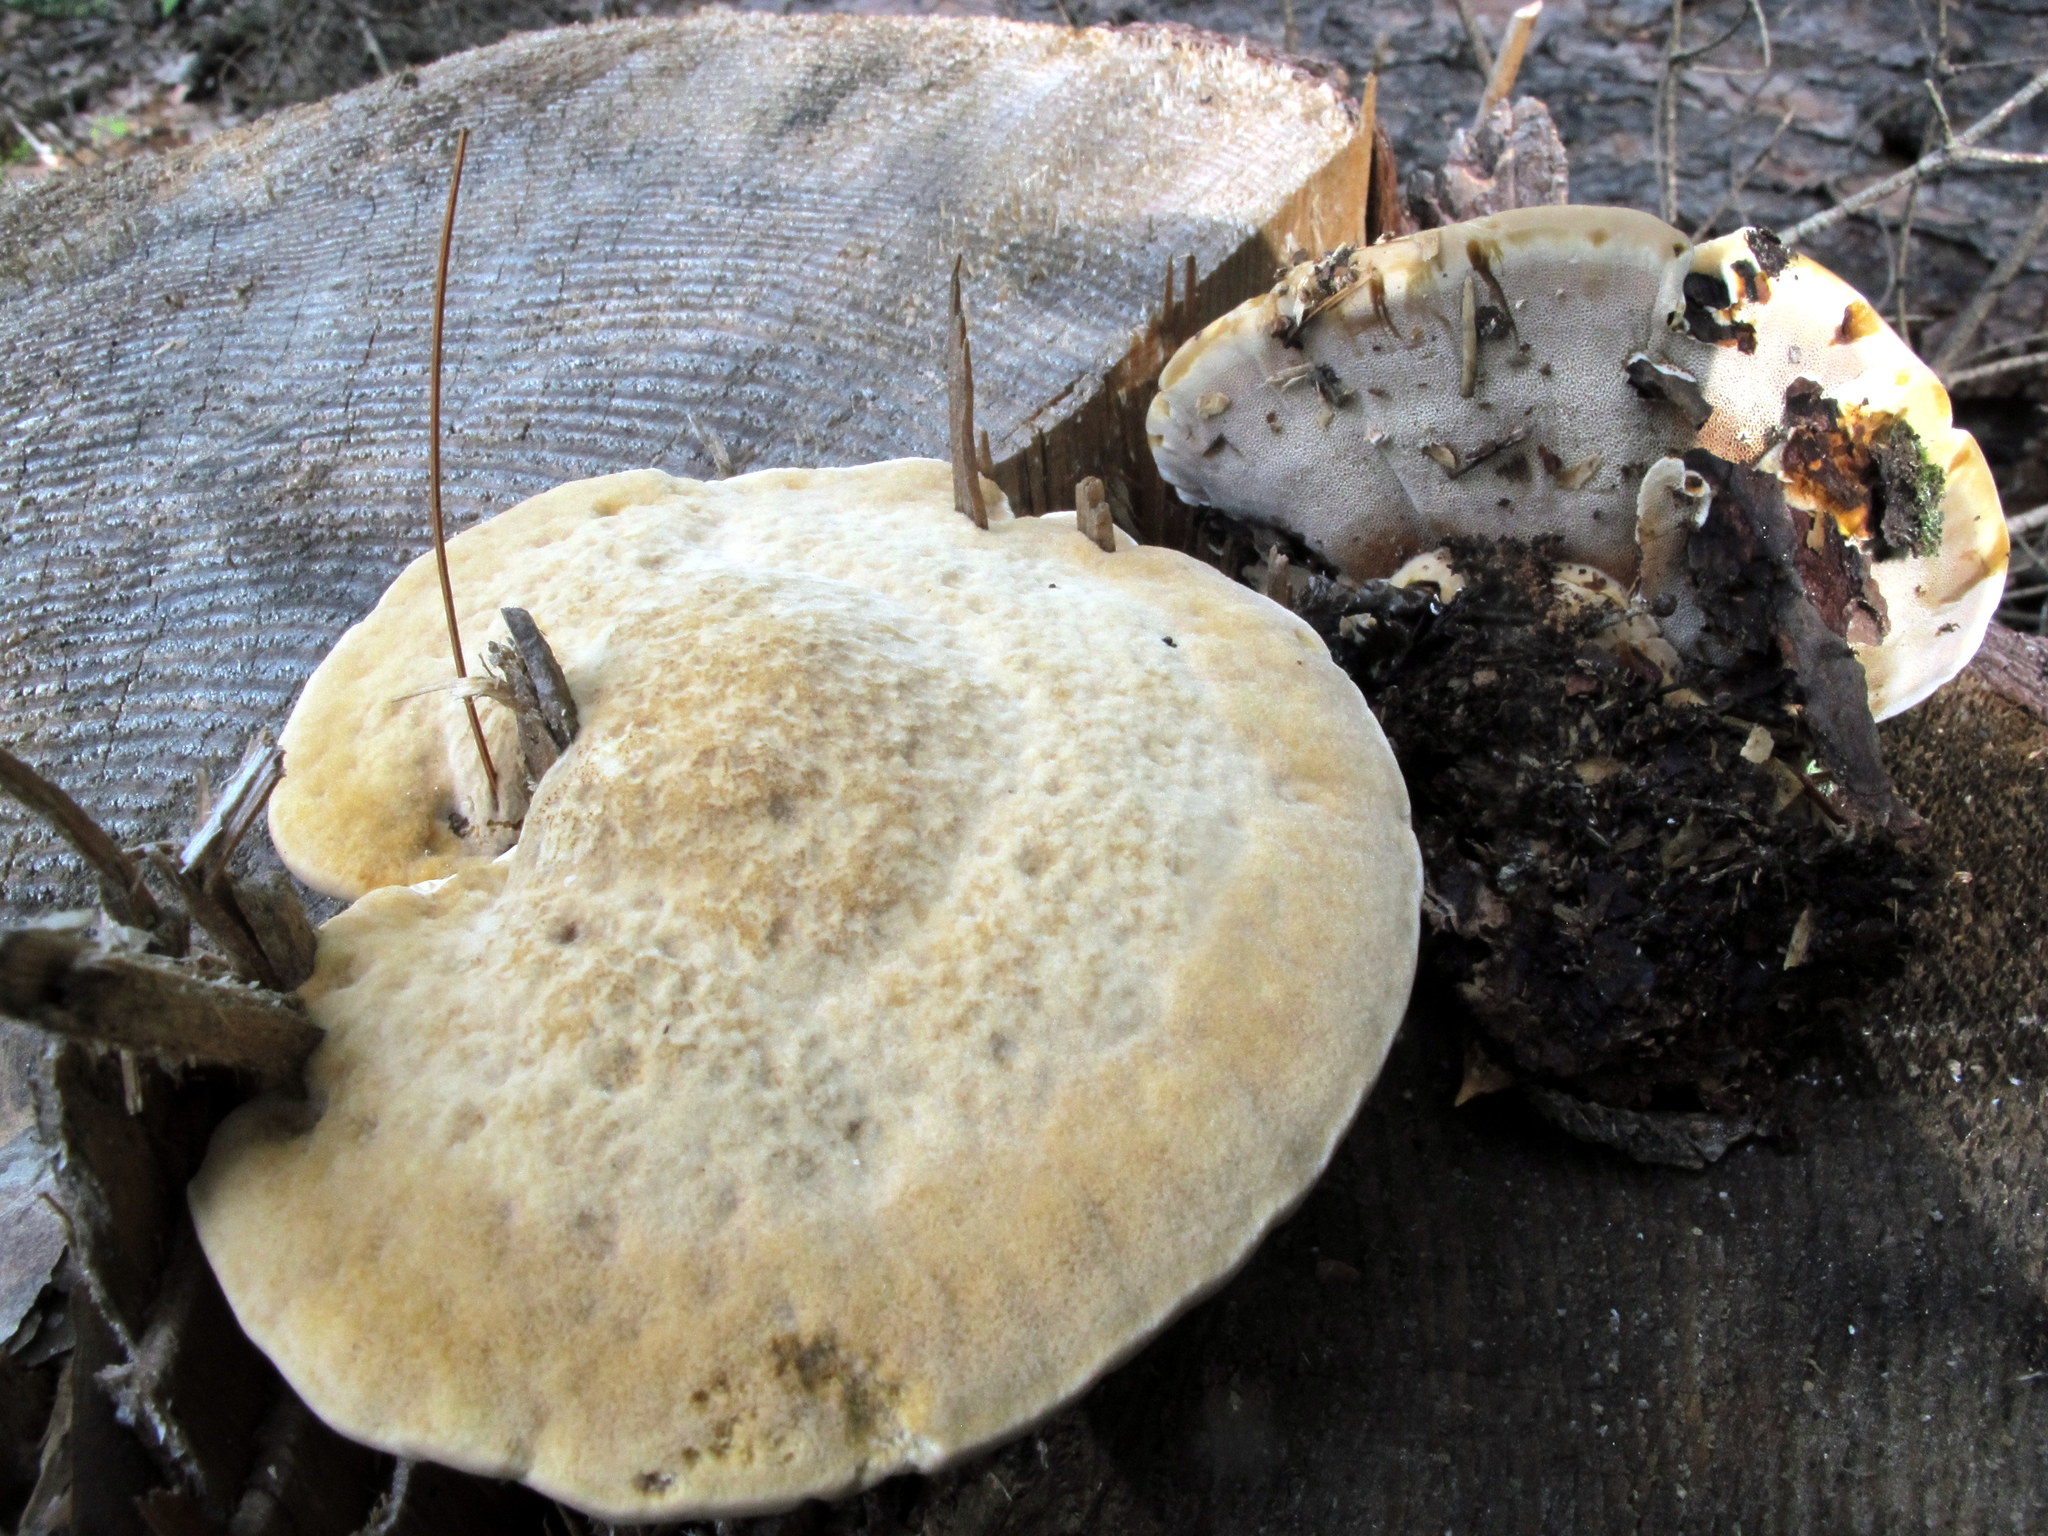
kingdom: Fungi
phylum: Basidiomycota
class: Agaricomycetes
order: Hymenochaetales
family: Hymenochaetaceae
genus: Onnia
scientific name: Onnia tomentosa
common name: Velvet rosette
